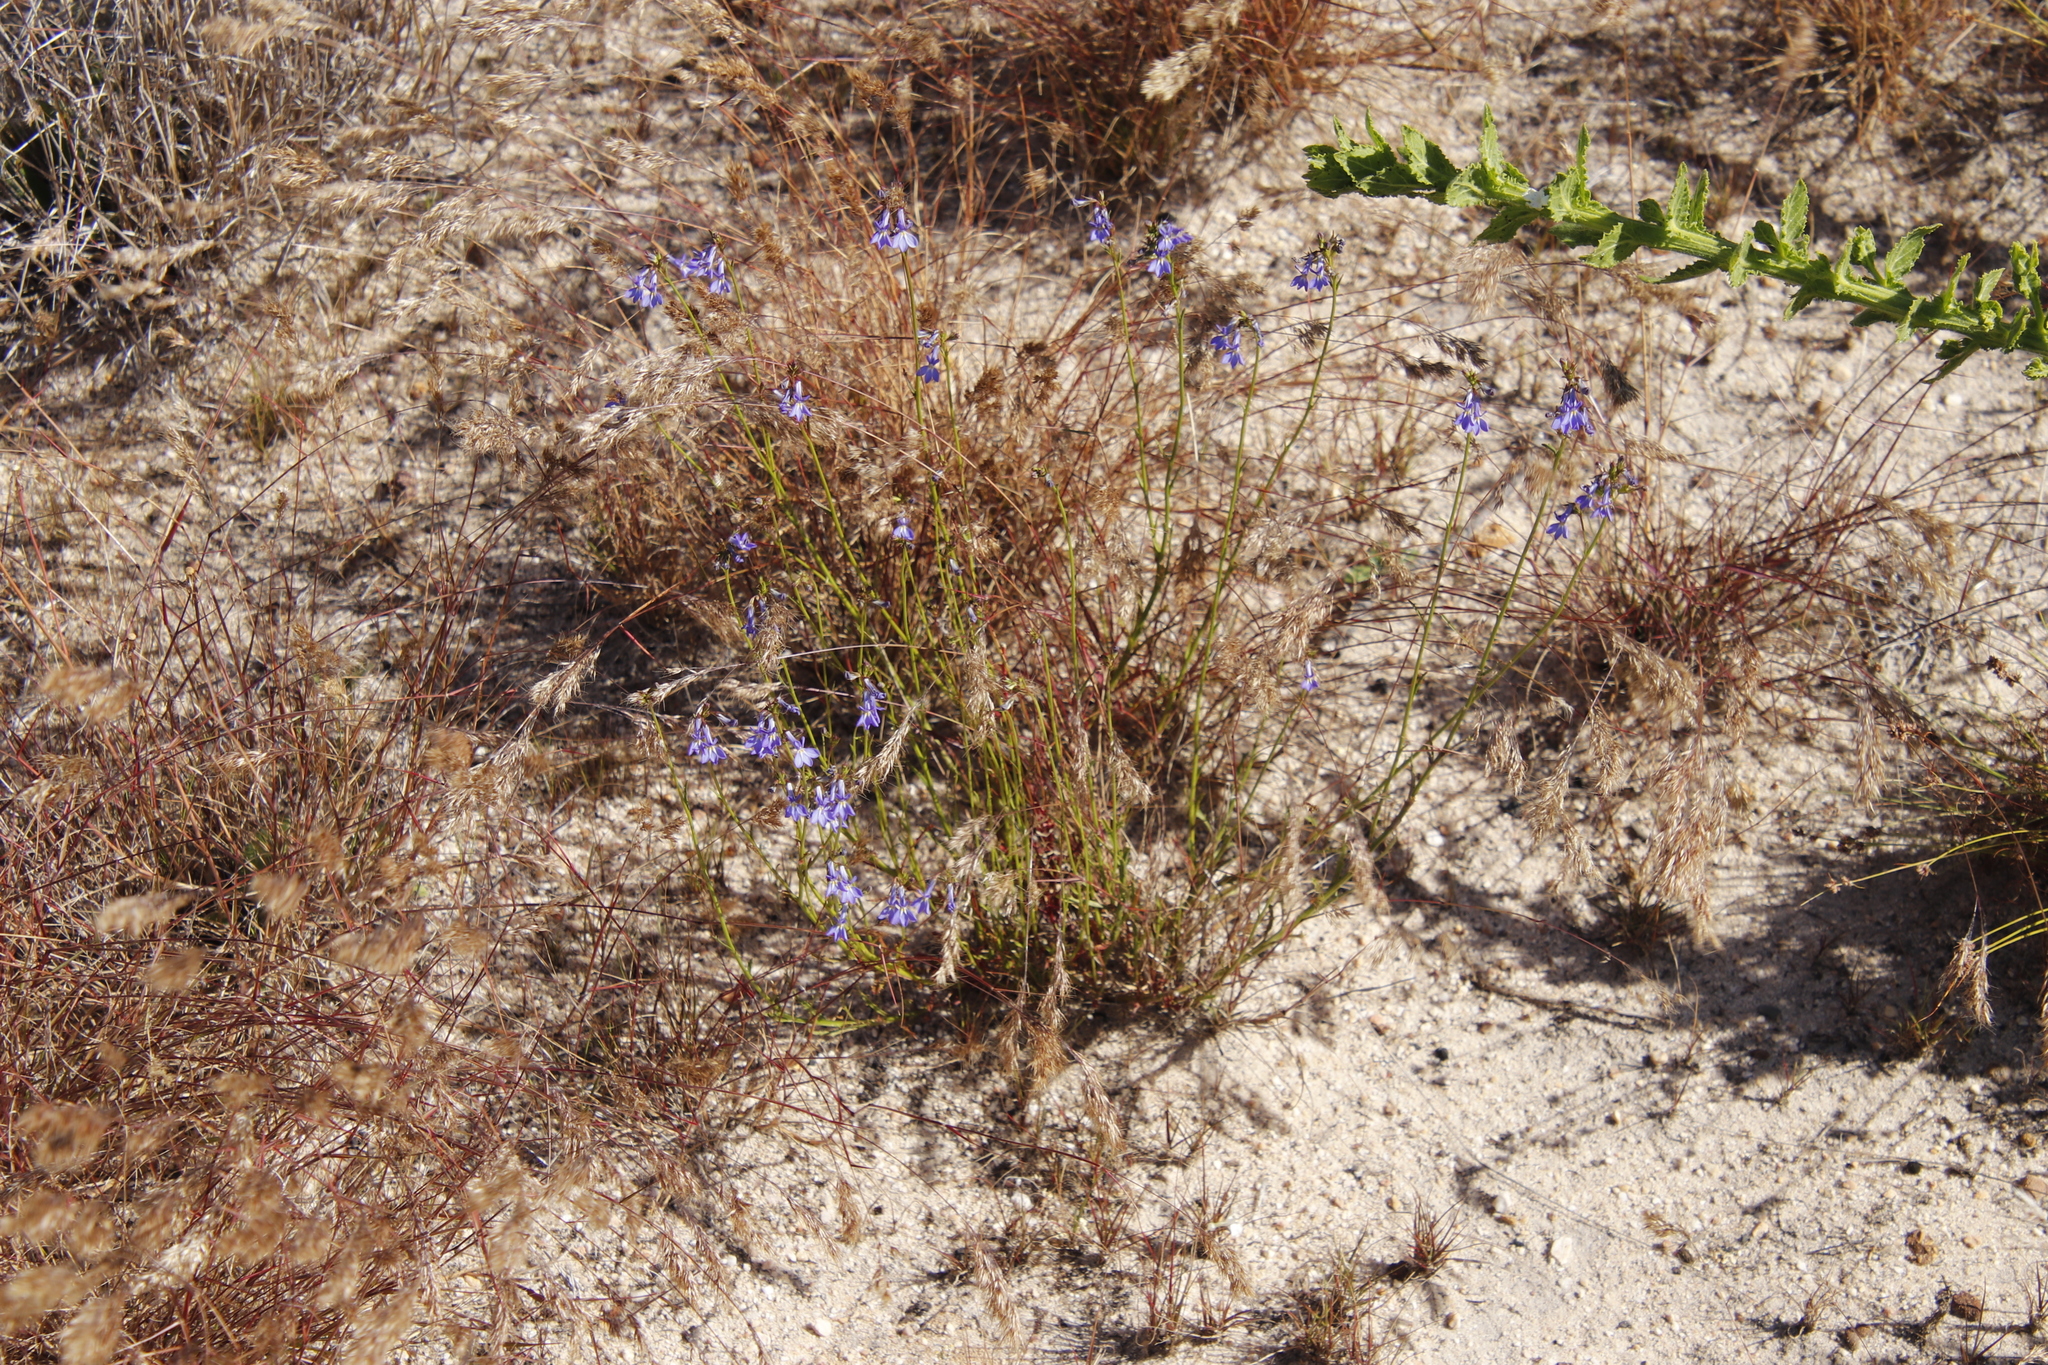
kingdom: Plantae
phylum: Tracheophyta
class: Magnoliopsida
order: Asterales
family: Campanulaceae
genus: Lobelia
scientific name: Lobelia comosa
